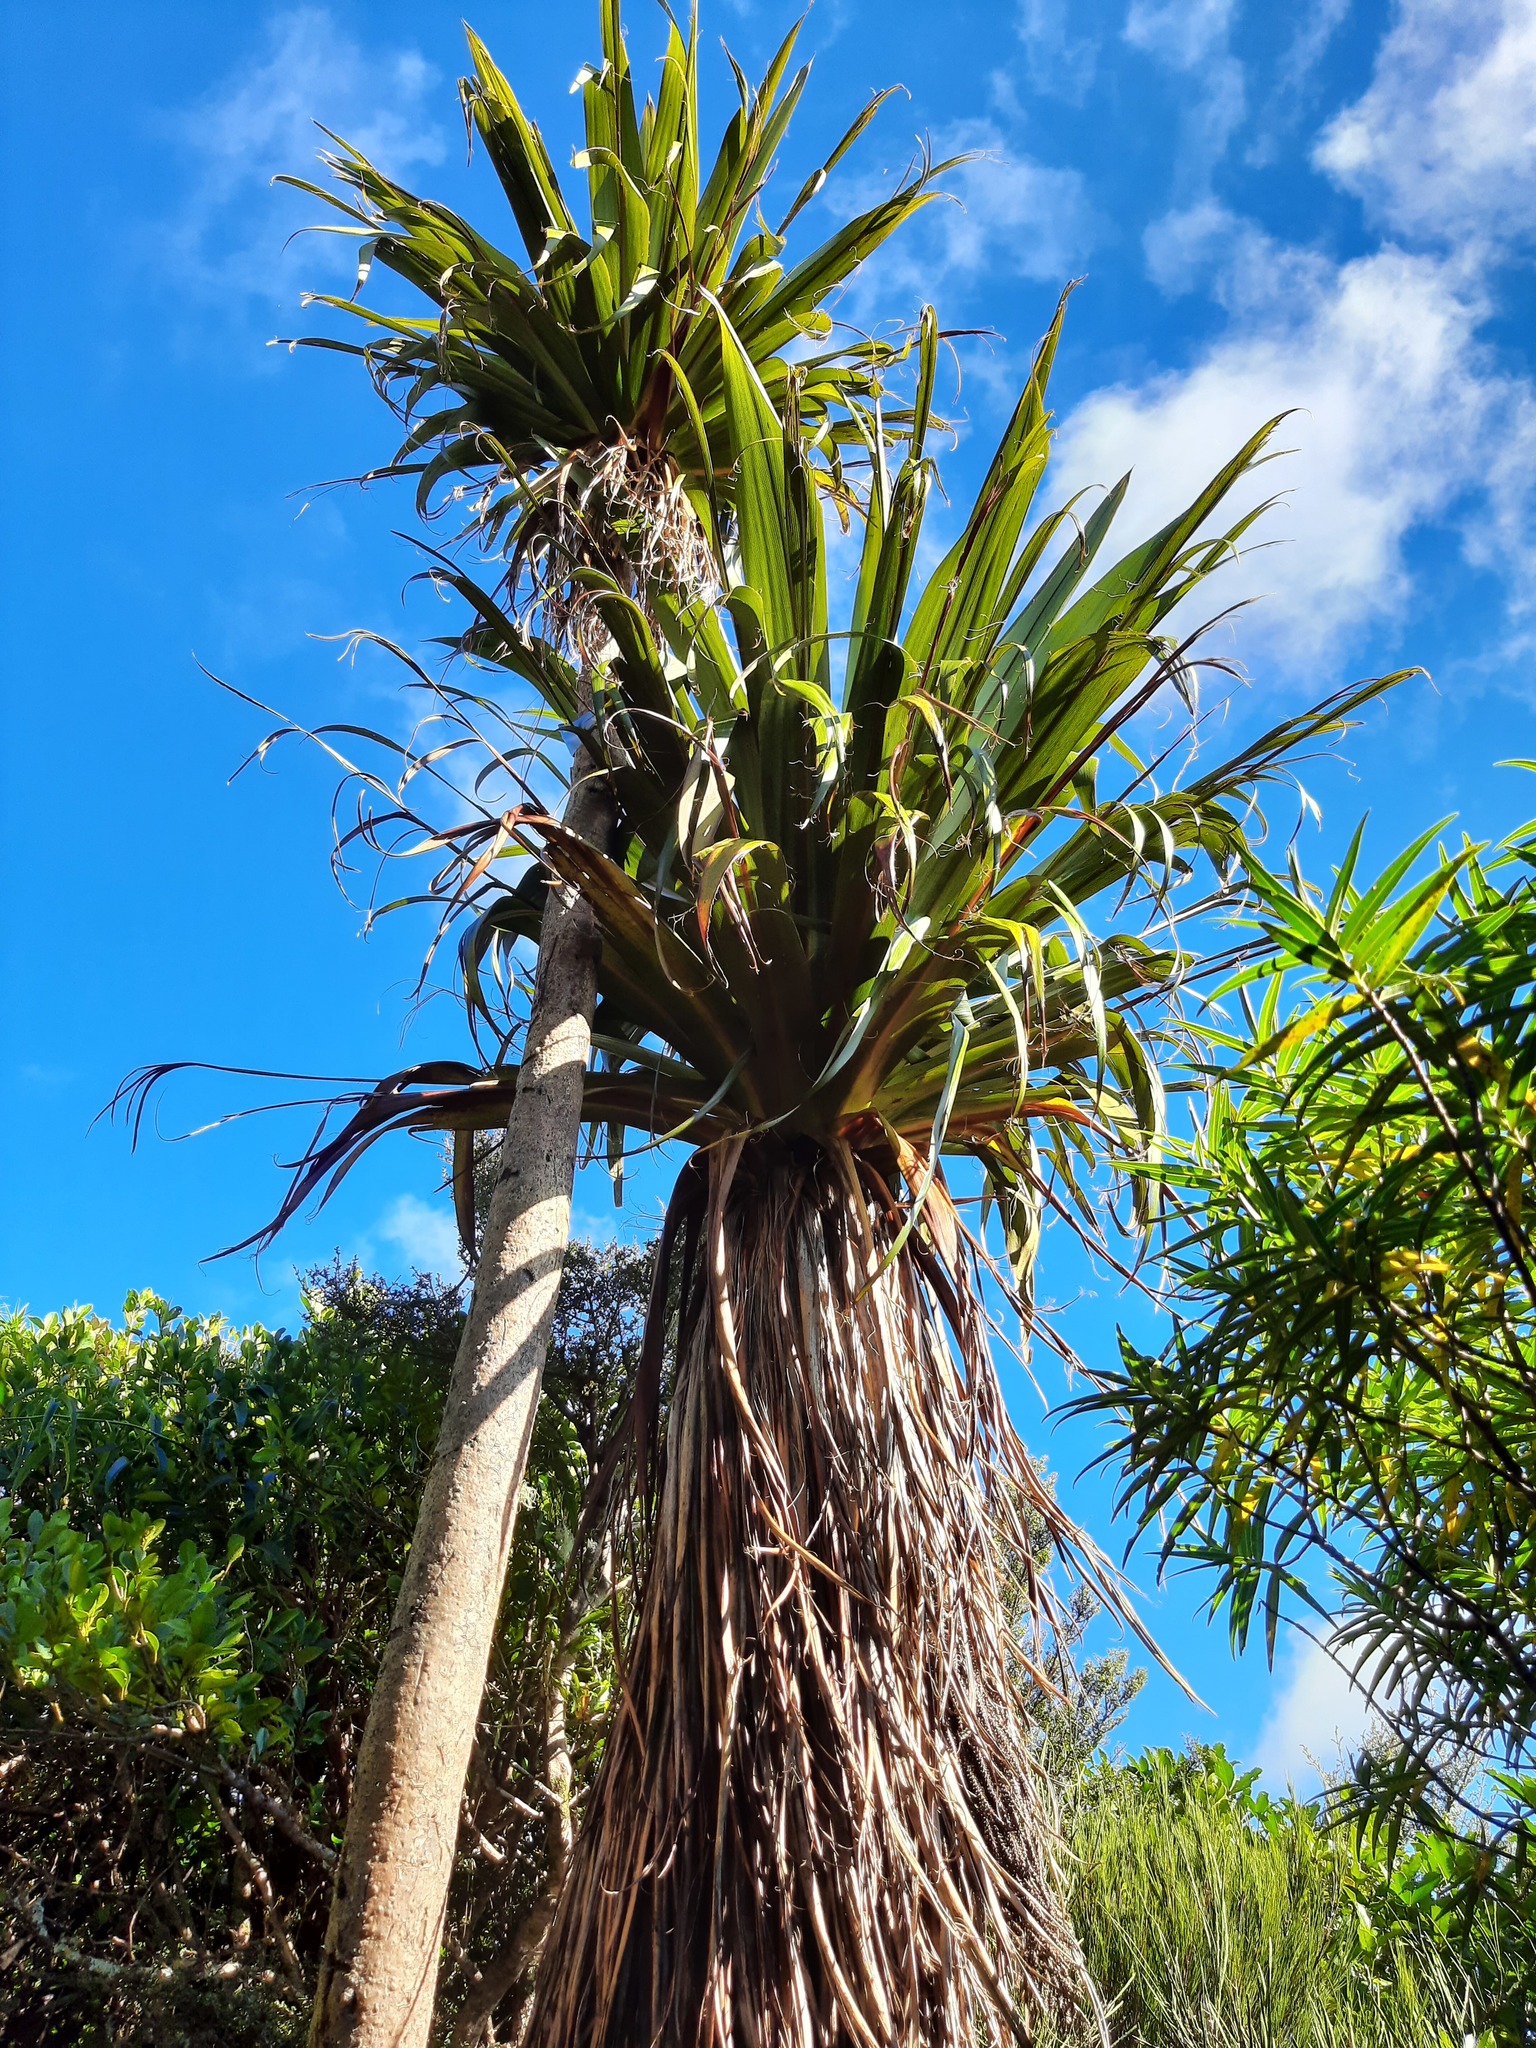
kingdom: Plantae
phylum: Tracheophyta
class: Liliopsida
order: Asparagales
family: Asparagaceae
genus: Cordyline
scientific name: Cordyline indivisa
